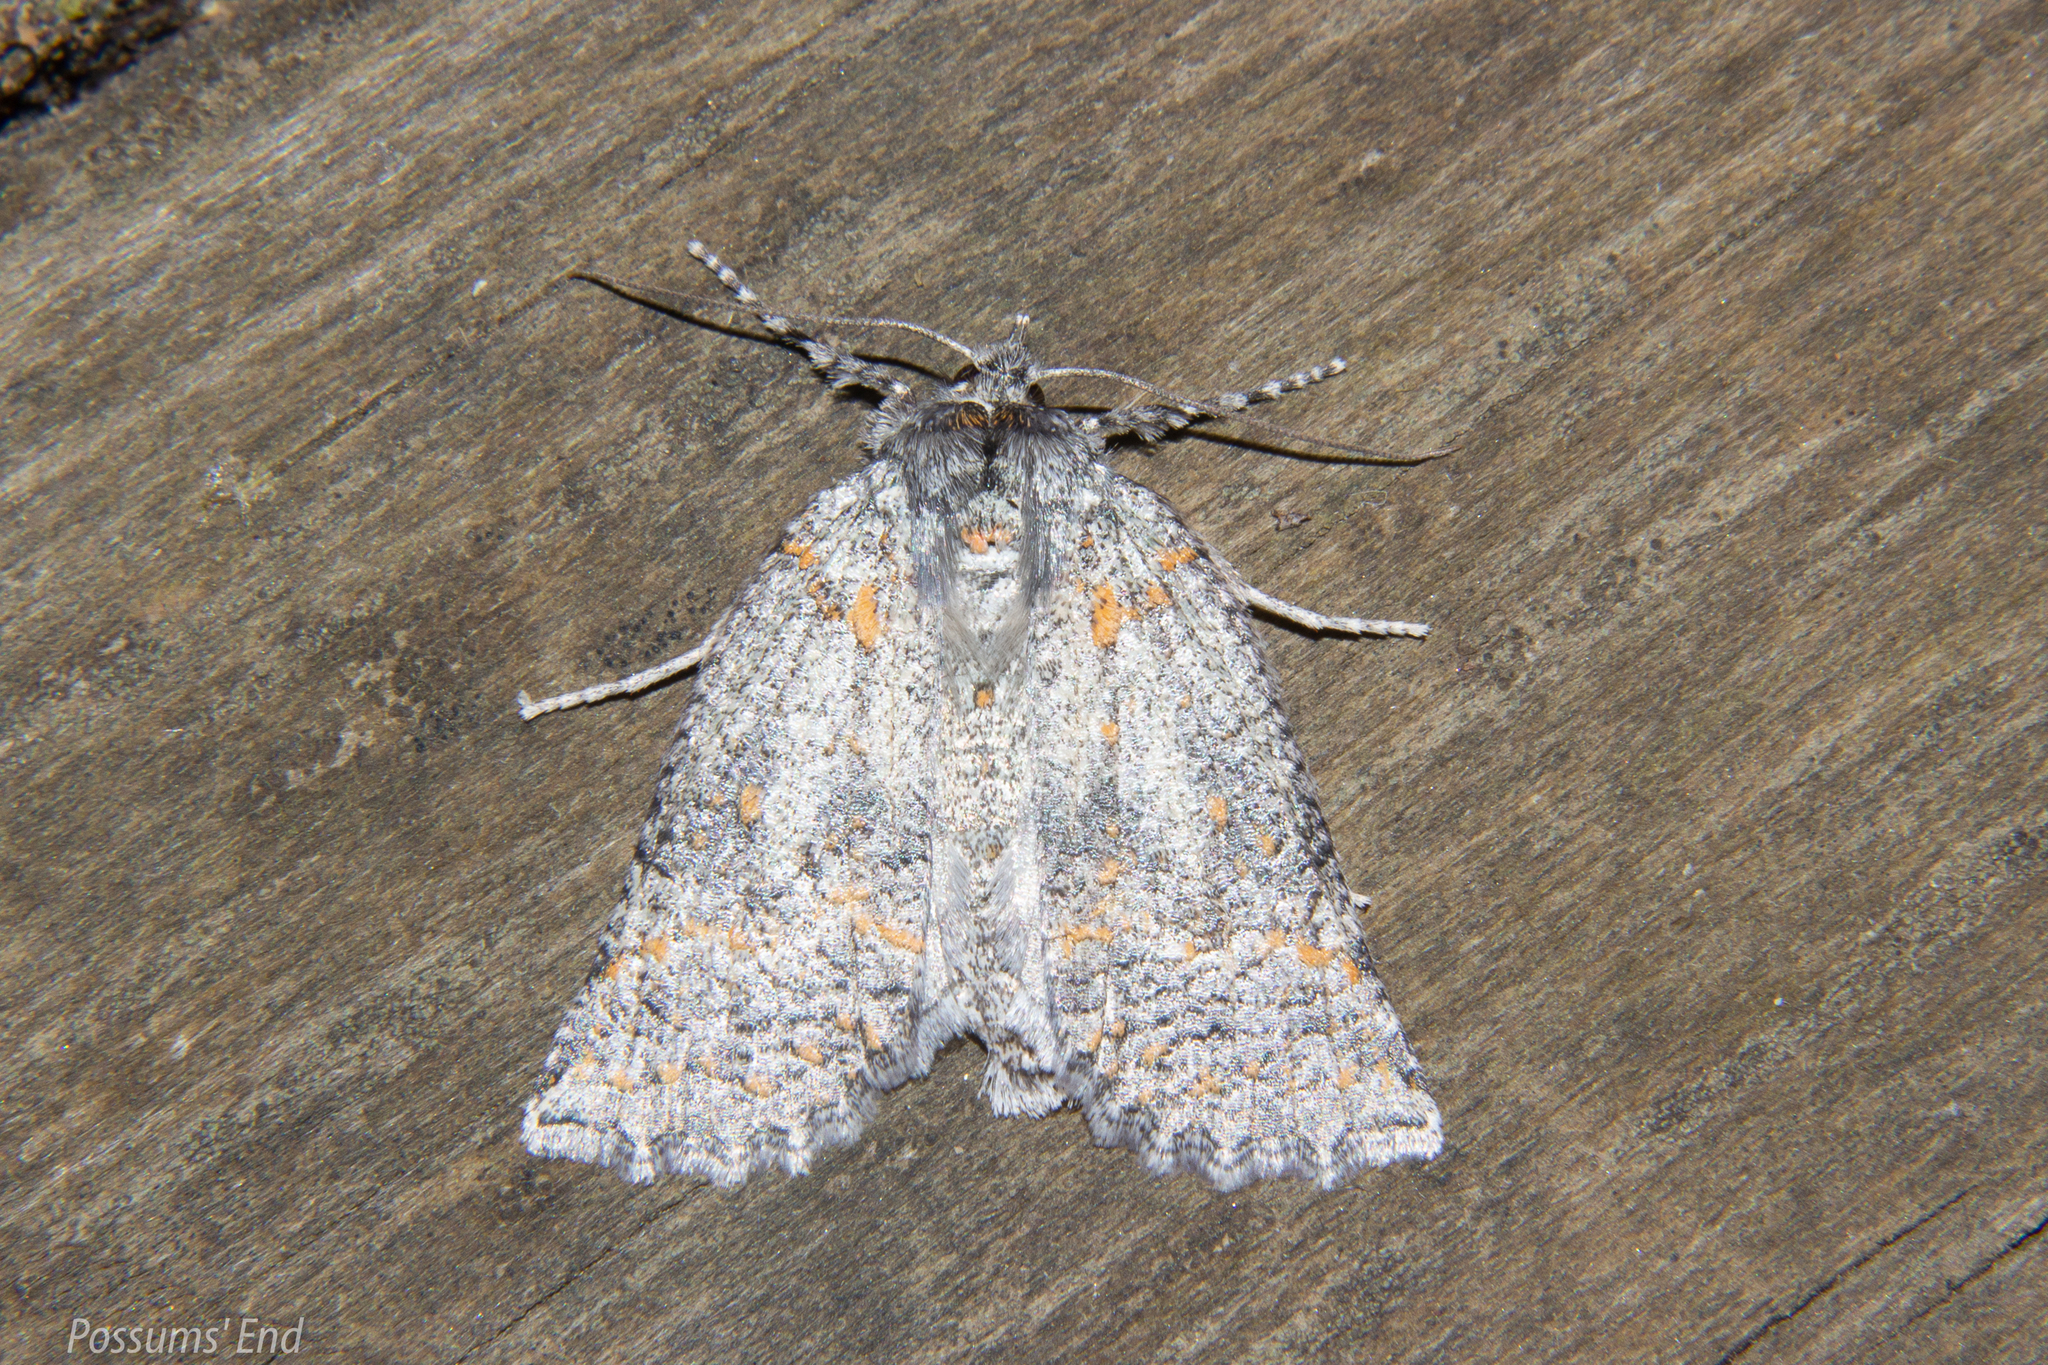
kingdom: Animalia
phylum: Arthropoda
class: Insecta
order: Lepidoptera
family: Geometridae
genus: Declana
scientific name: Declana floccosa
